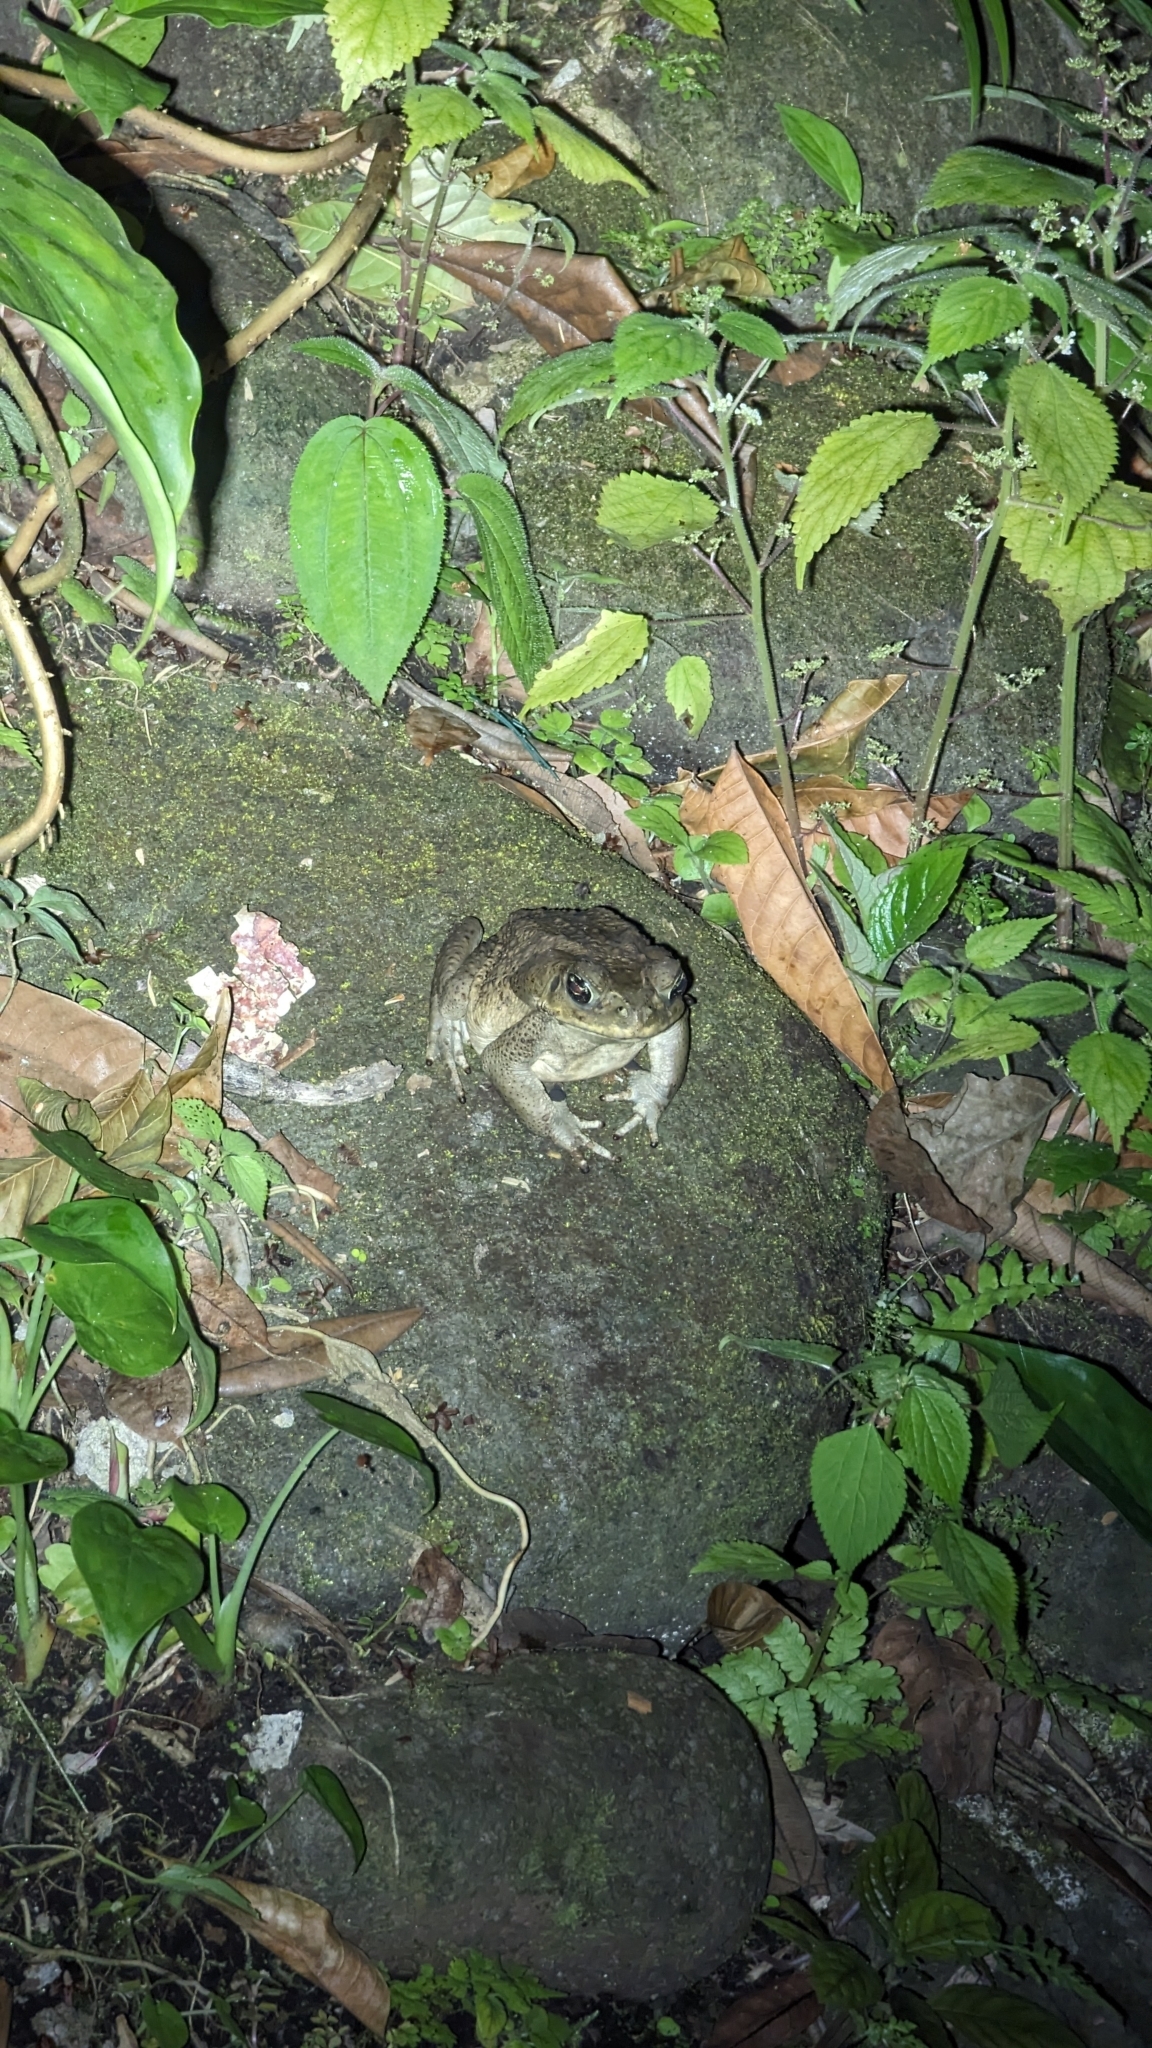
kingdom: Animalia
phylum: Chordata
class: Amphibia
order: Anura
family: Bufonidae
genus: Rhinella
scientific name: Rhinella horribilis
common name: Mesoamerican cane toad
